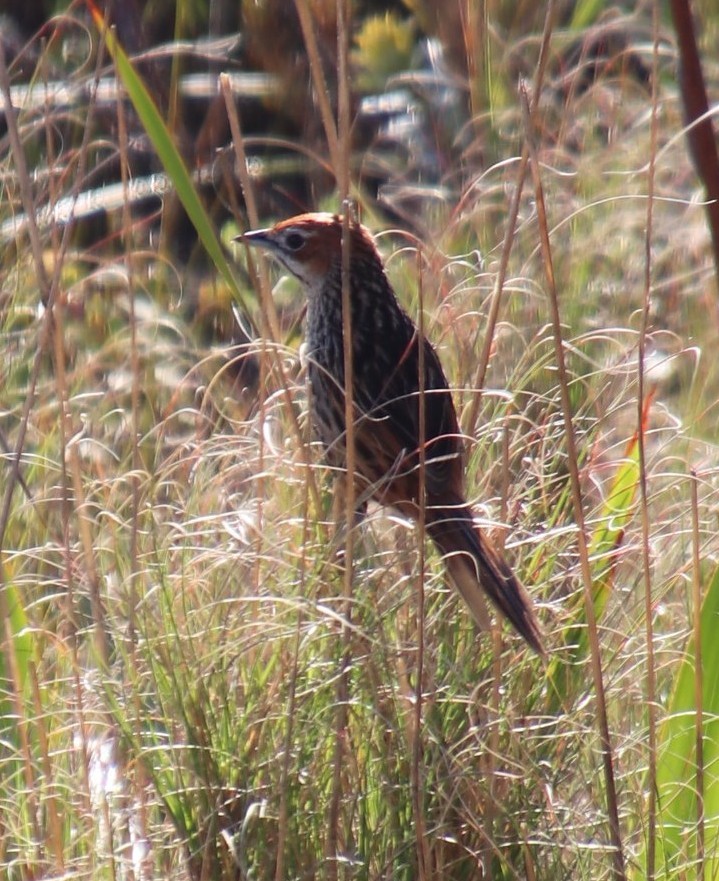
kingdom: Animalia
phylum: Chordata
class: Aves
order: Passeriformes
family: Macrosphenidae
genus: Sphenoeacus
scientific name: Sphenoeacus afer
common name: Cape grassbird
